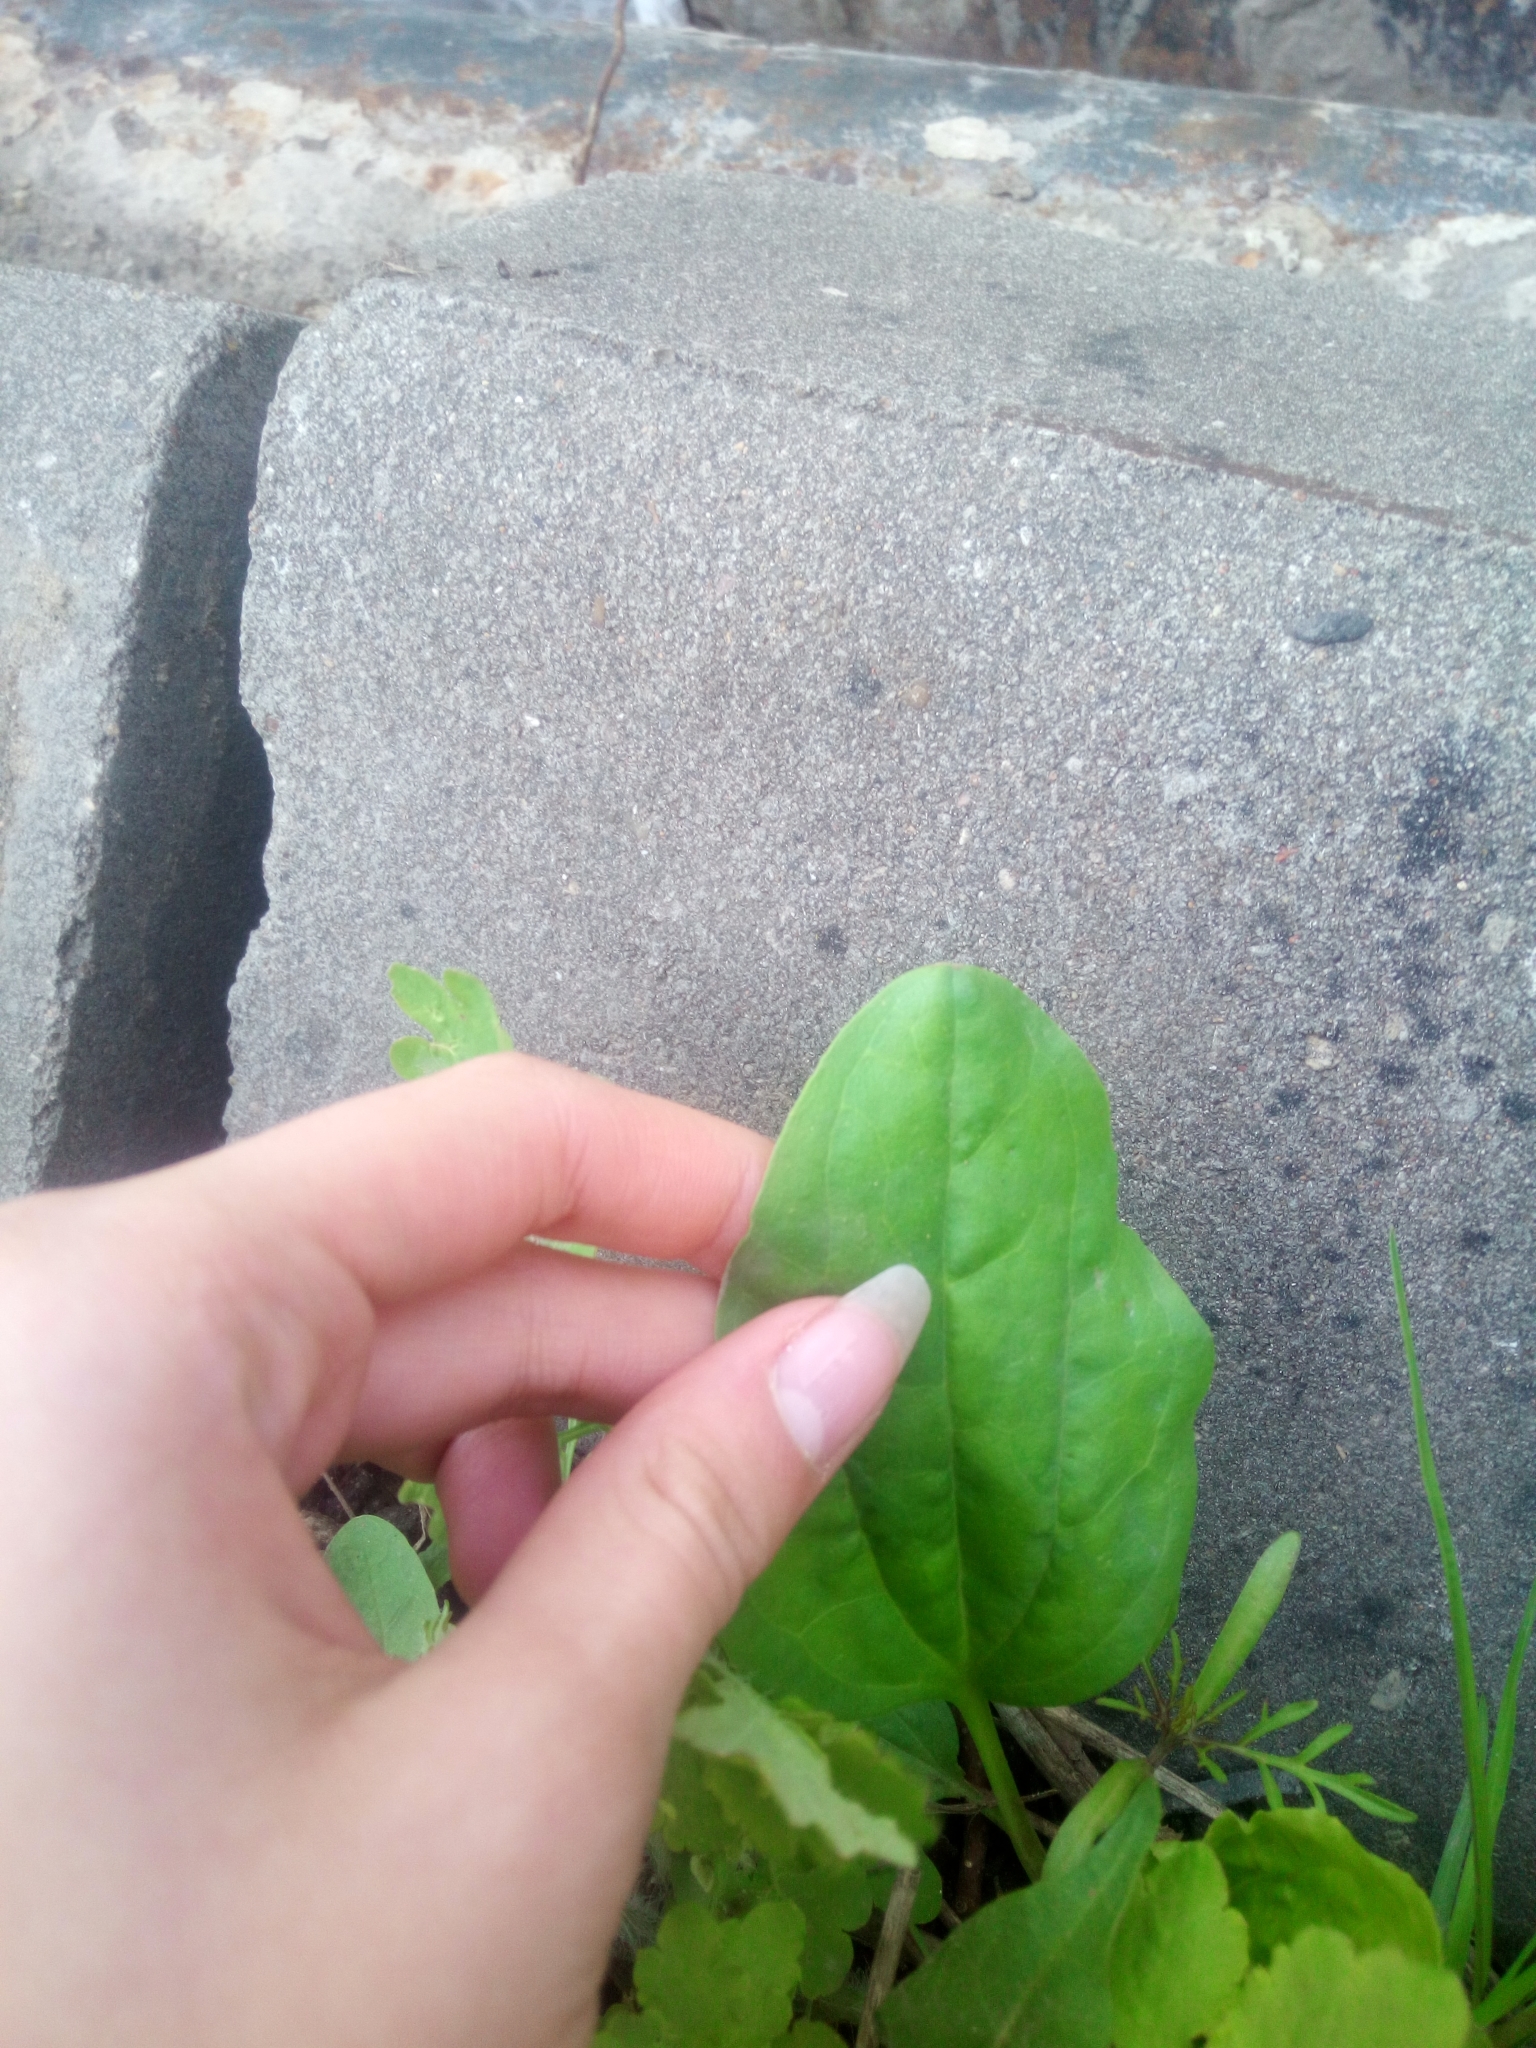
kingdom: Plantae
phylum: Tracheophyta
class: Magnoliopsida
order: Lamiales
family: Plantaginaceae
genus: Plantago
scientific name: Plantago major
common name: Common plantain
